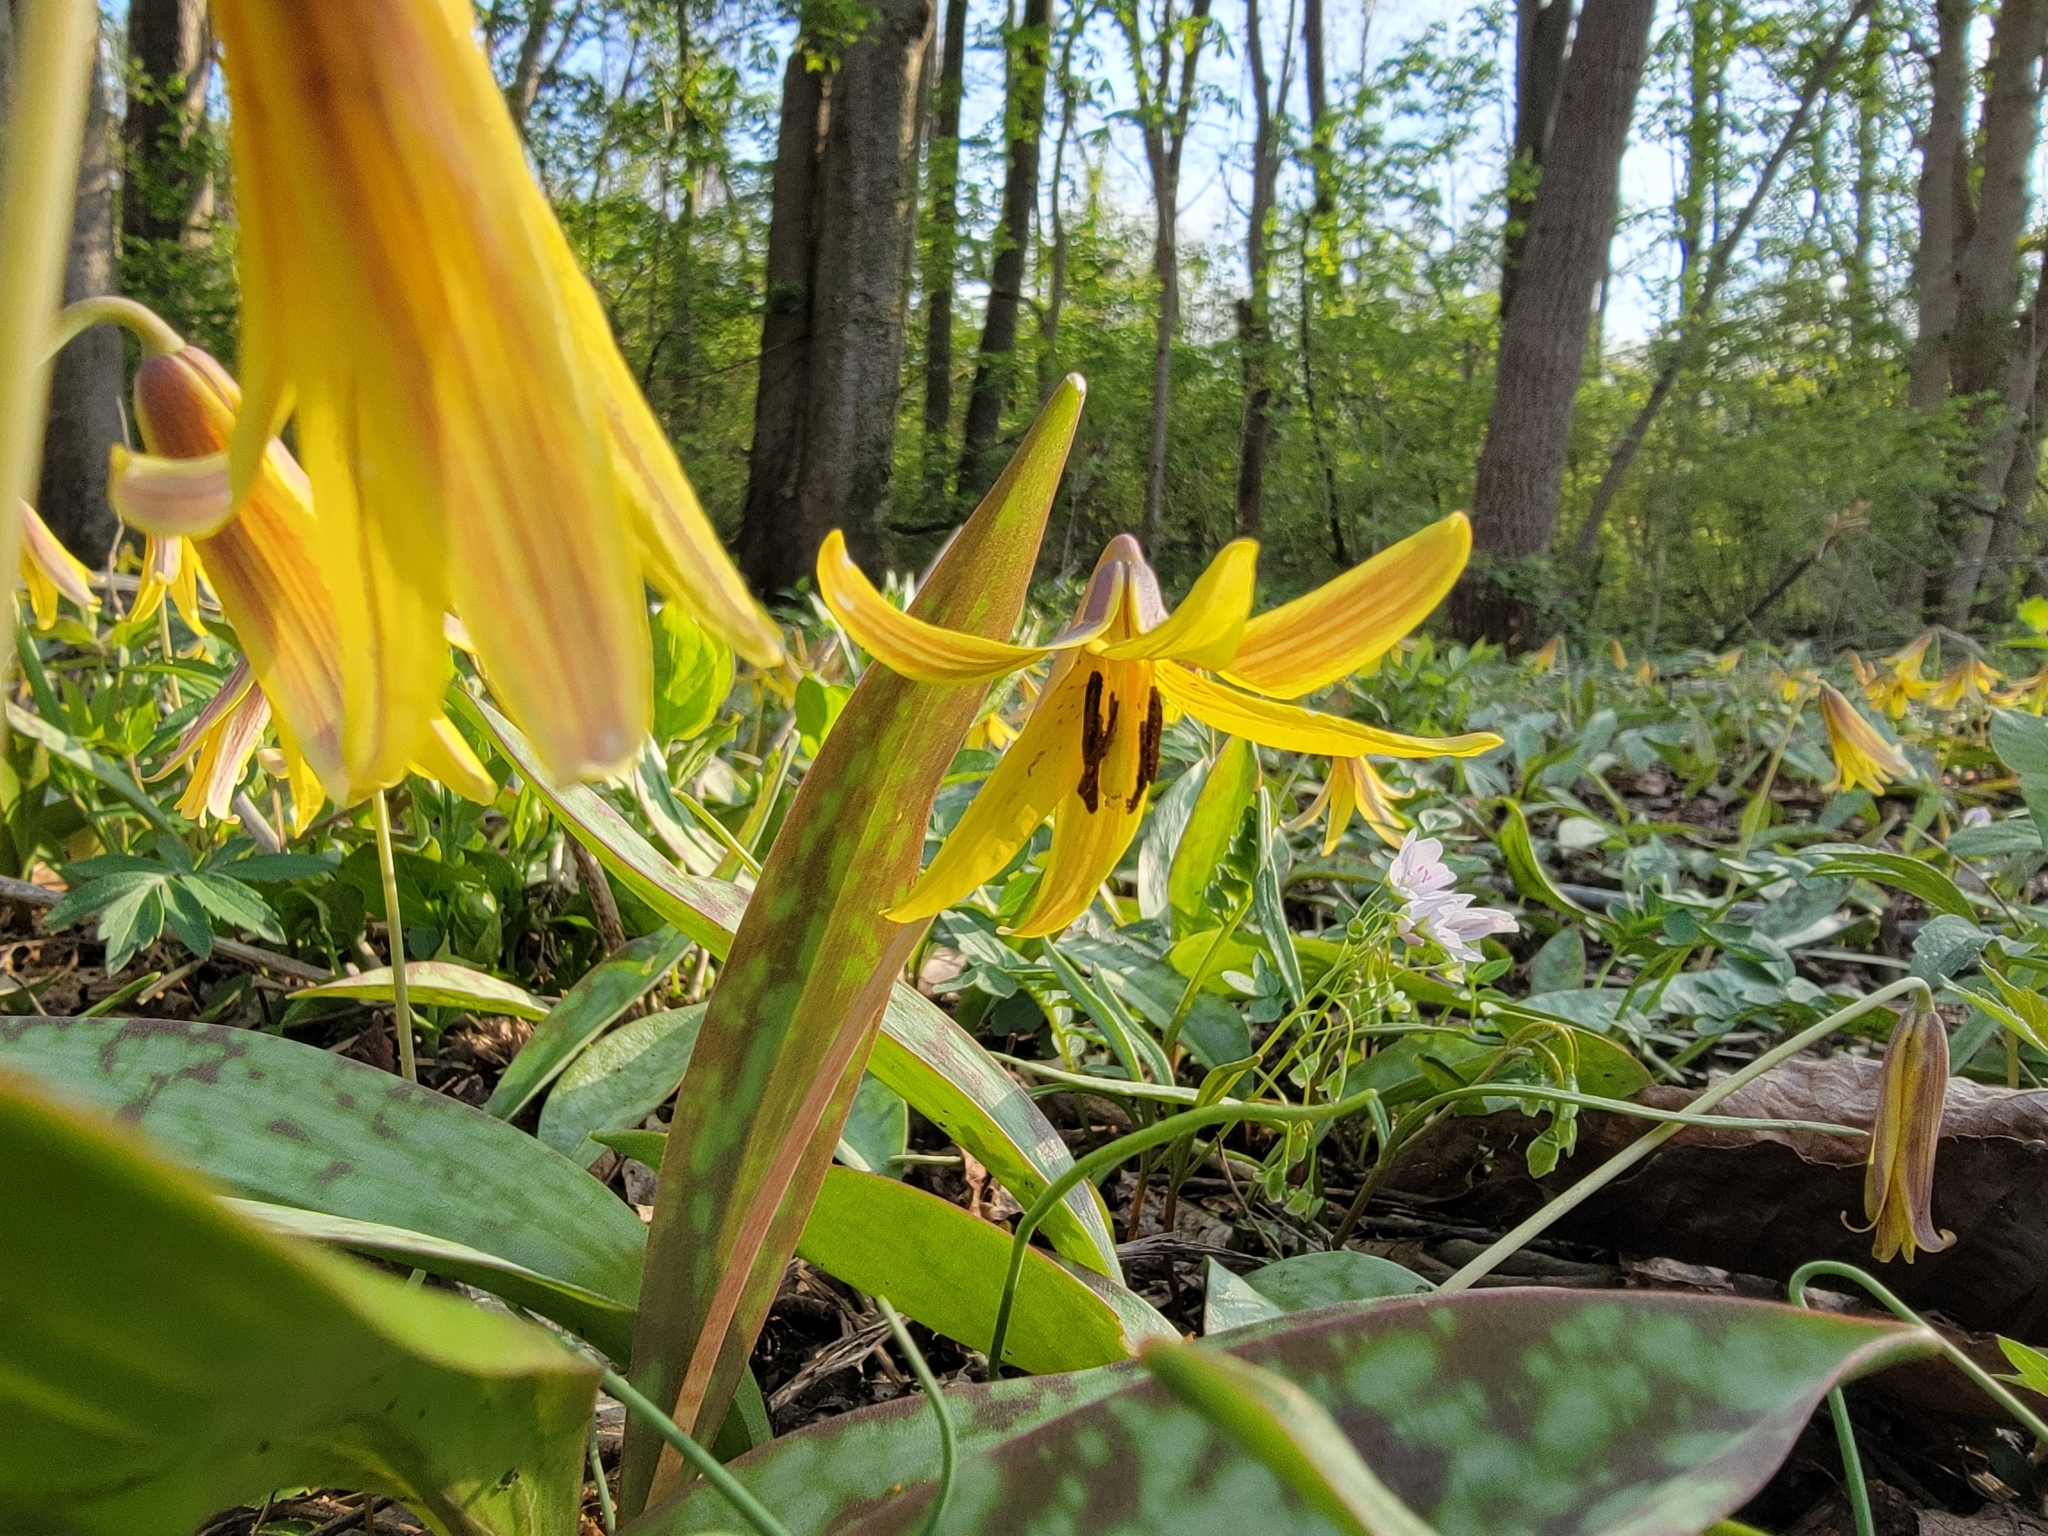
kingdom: Plantae
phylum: Tracheophyta
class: Liliopsida
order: Liliales
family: Liliaceae
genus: Erythronium
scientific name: Erythronium americanum
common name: Yellow adder's-tongue
